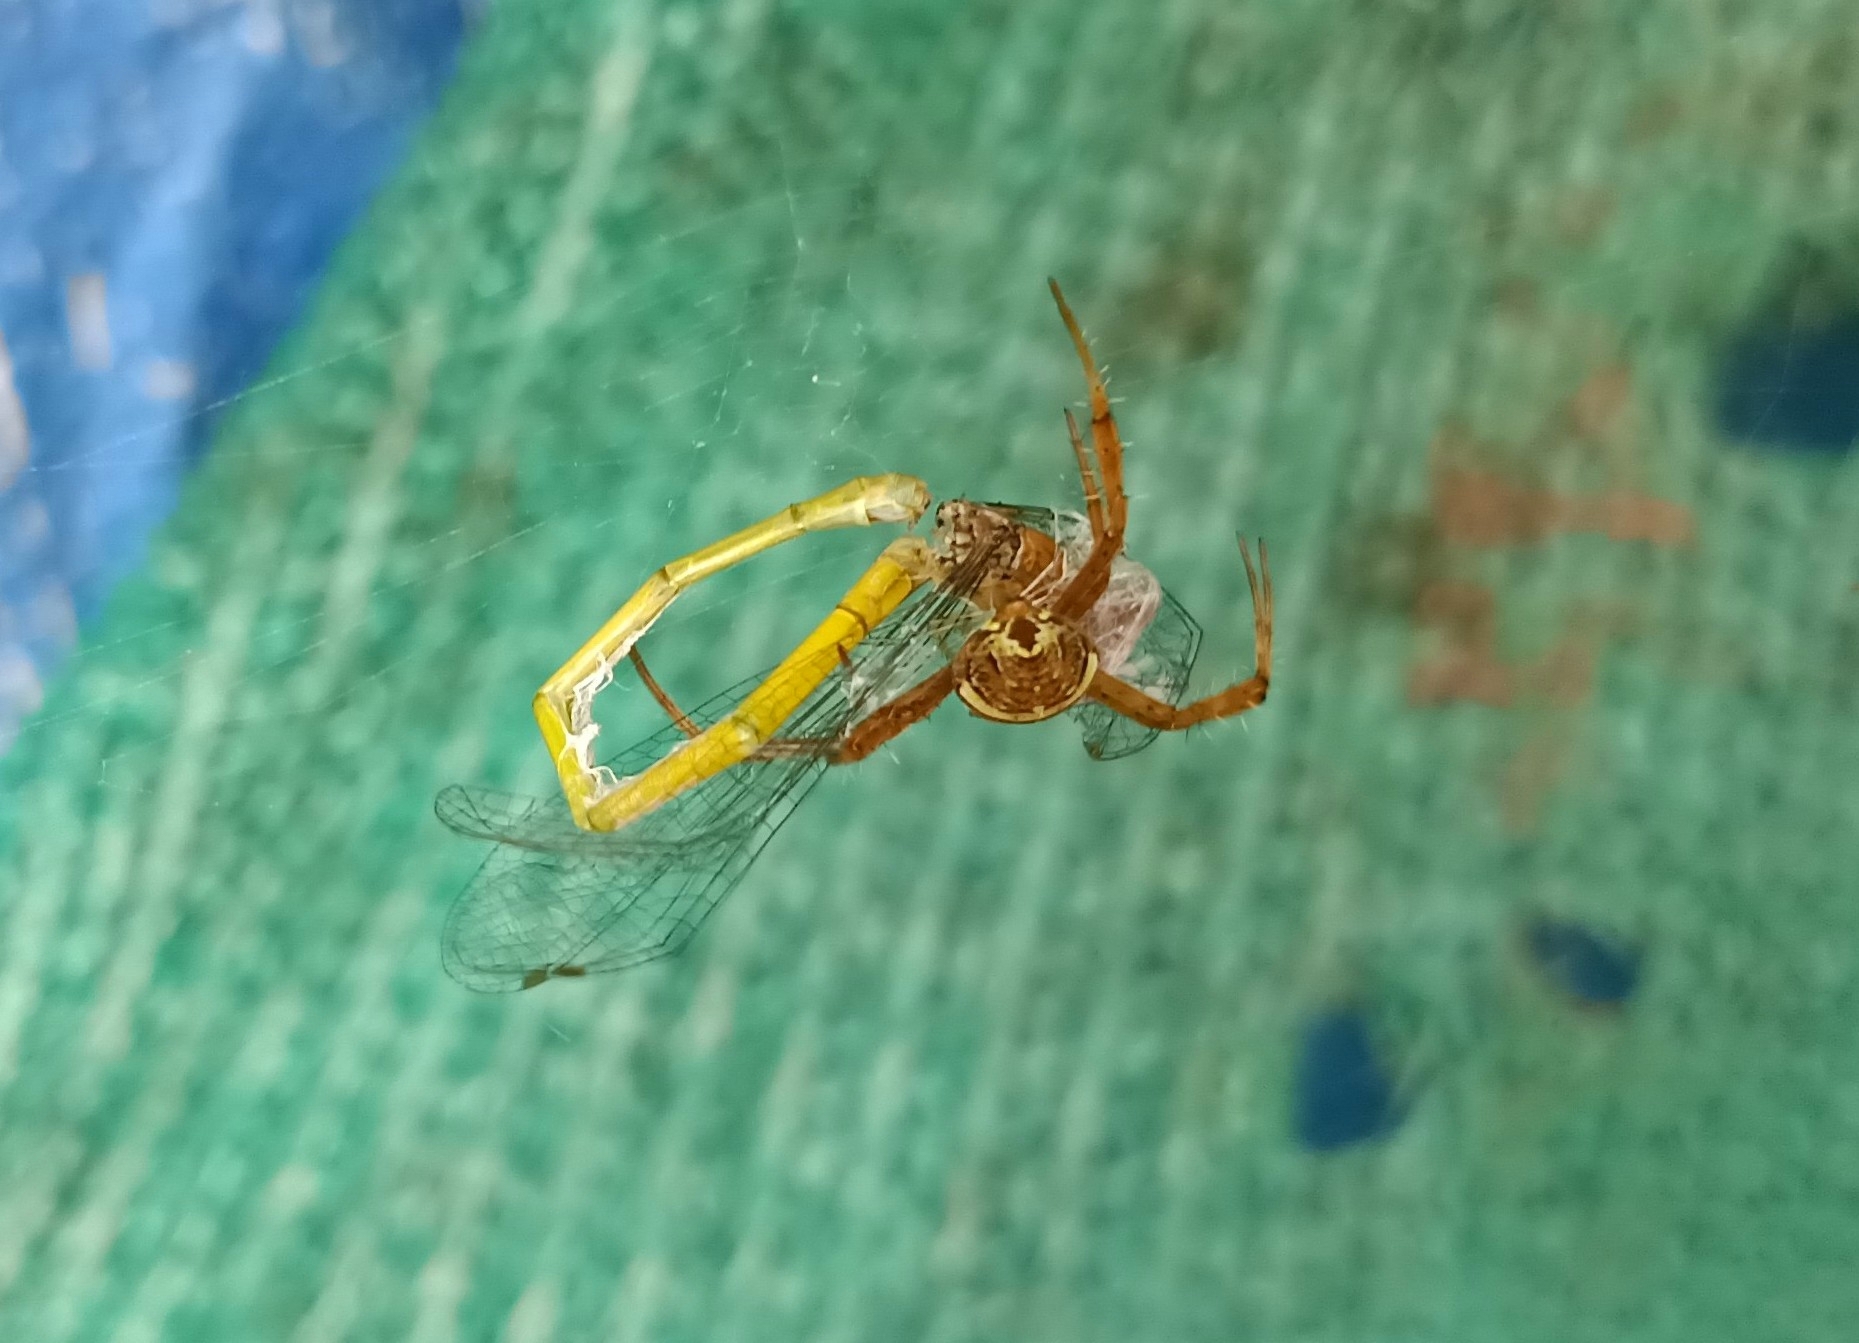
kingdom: Animalia
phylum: Arthropoda
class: Insecta
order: Odonata
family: Coenagrionidae
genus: Ceriagrion
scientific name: Ceriagrion coromandelianum
